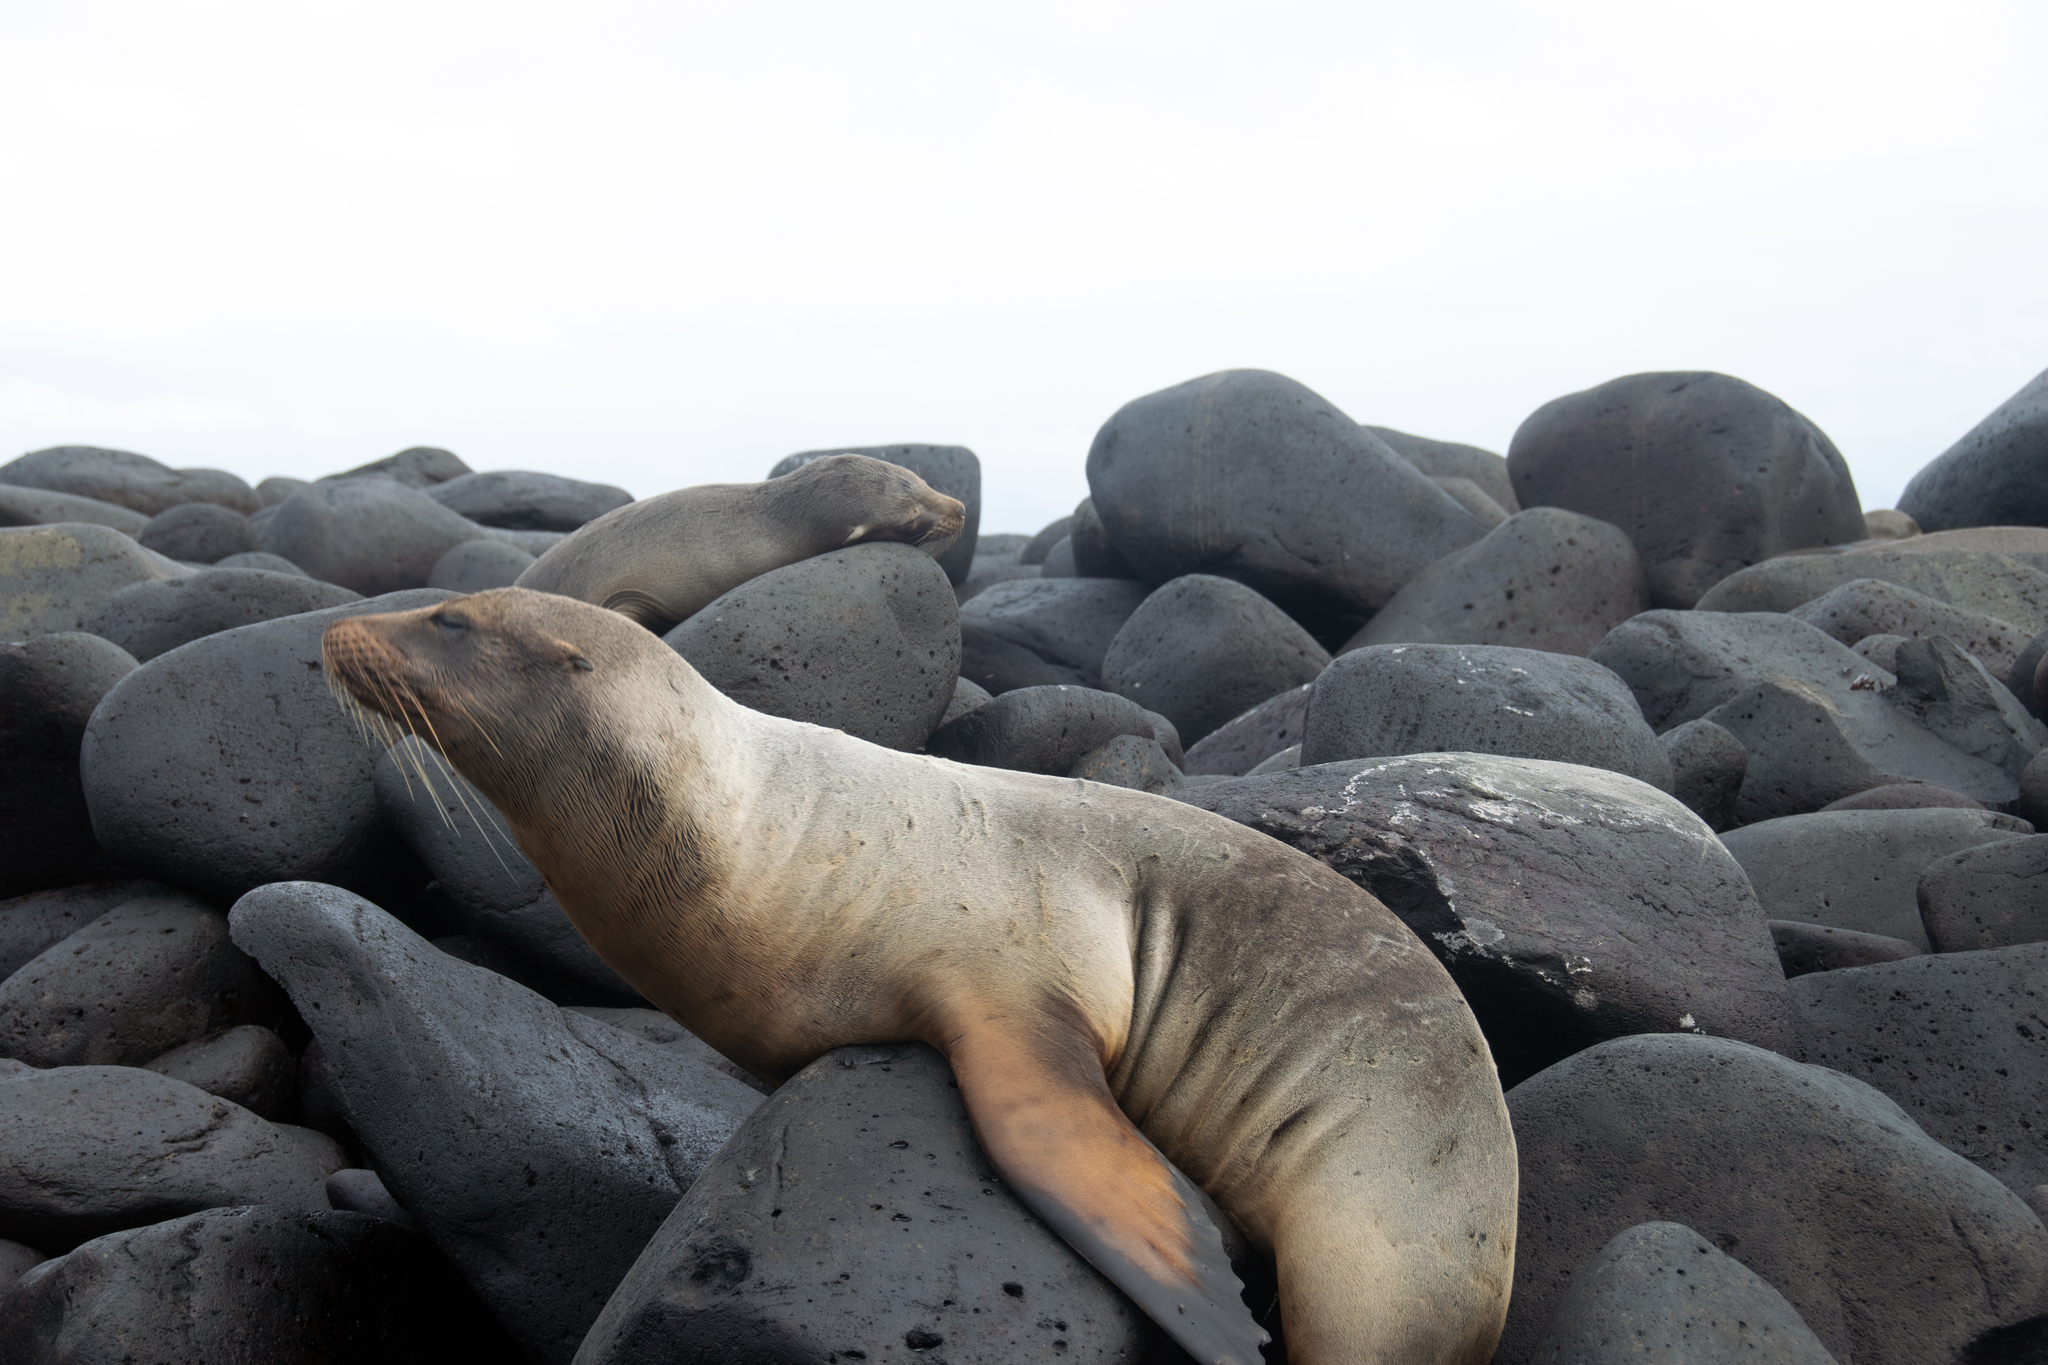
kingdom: Animalia
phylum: Chordata
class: Mammalia
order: Carnivora
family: Otariidae
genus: Zalophus
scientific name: Zalophus wollebaeki
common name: Galapagos sea lion
